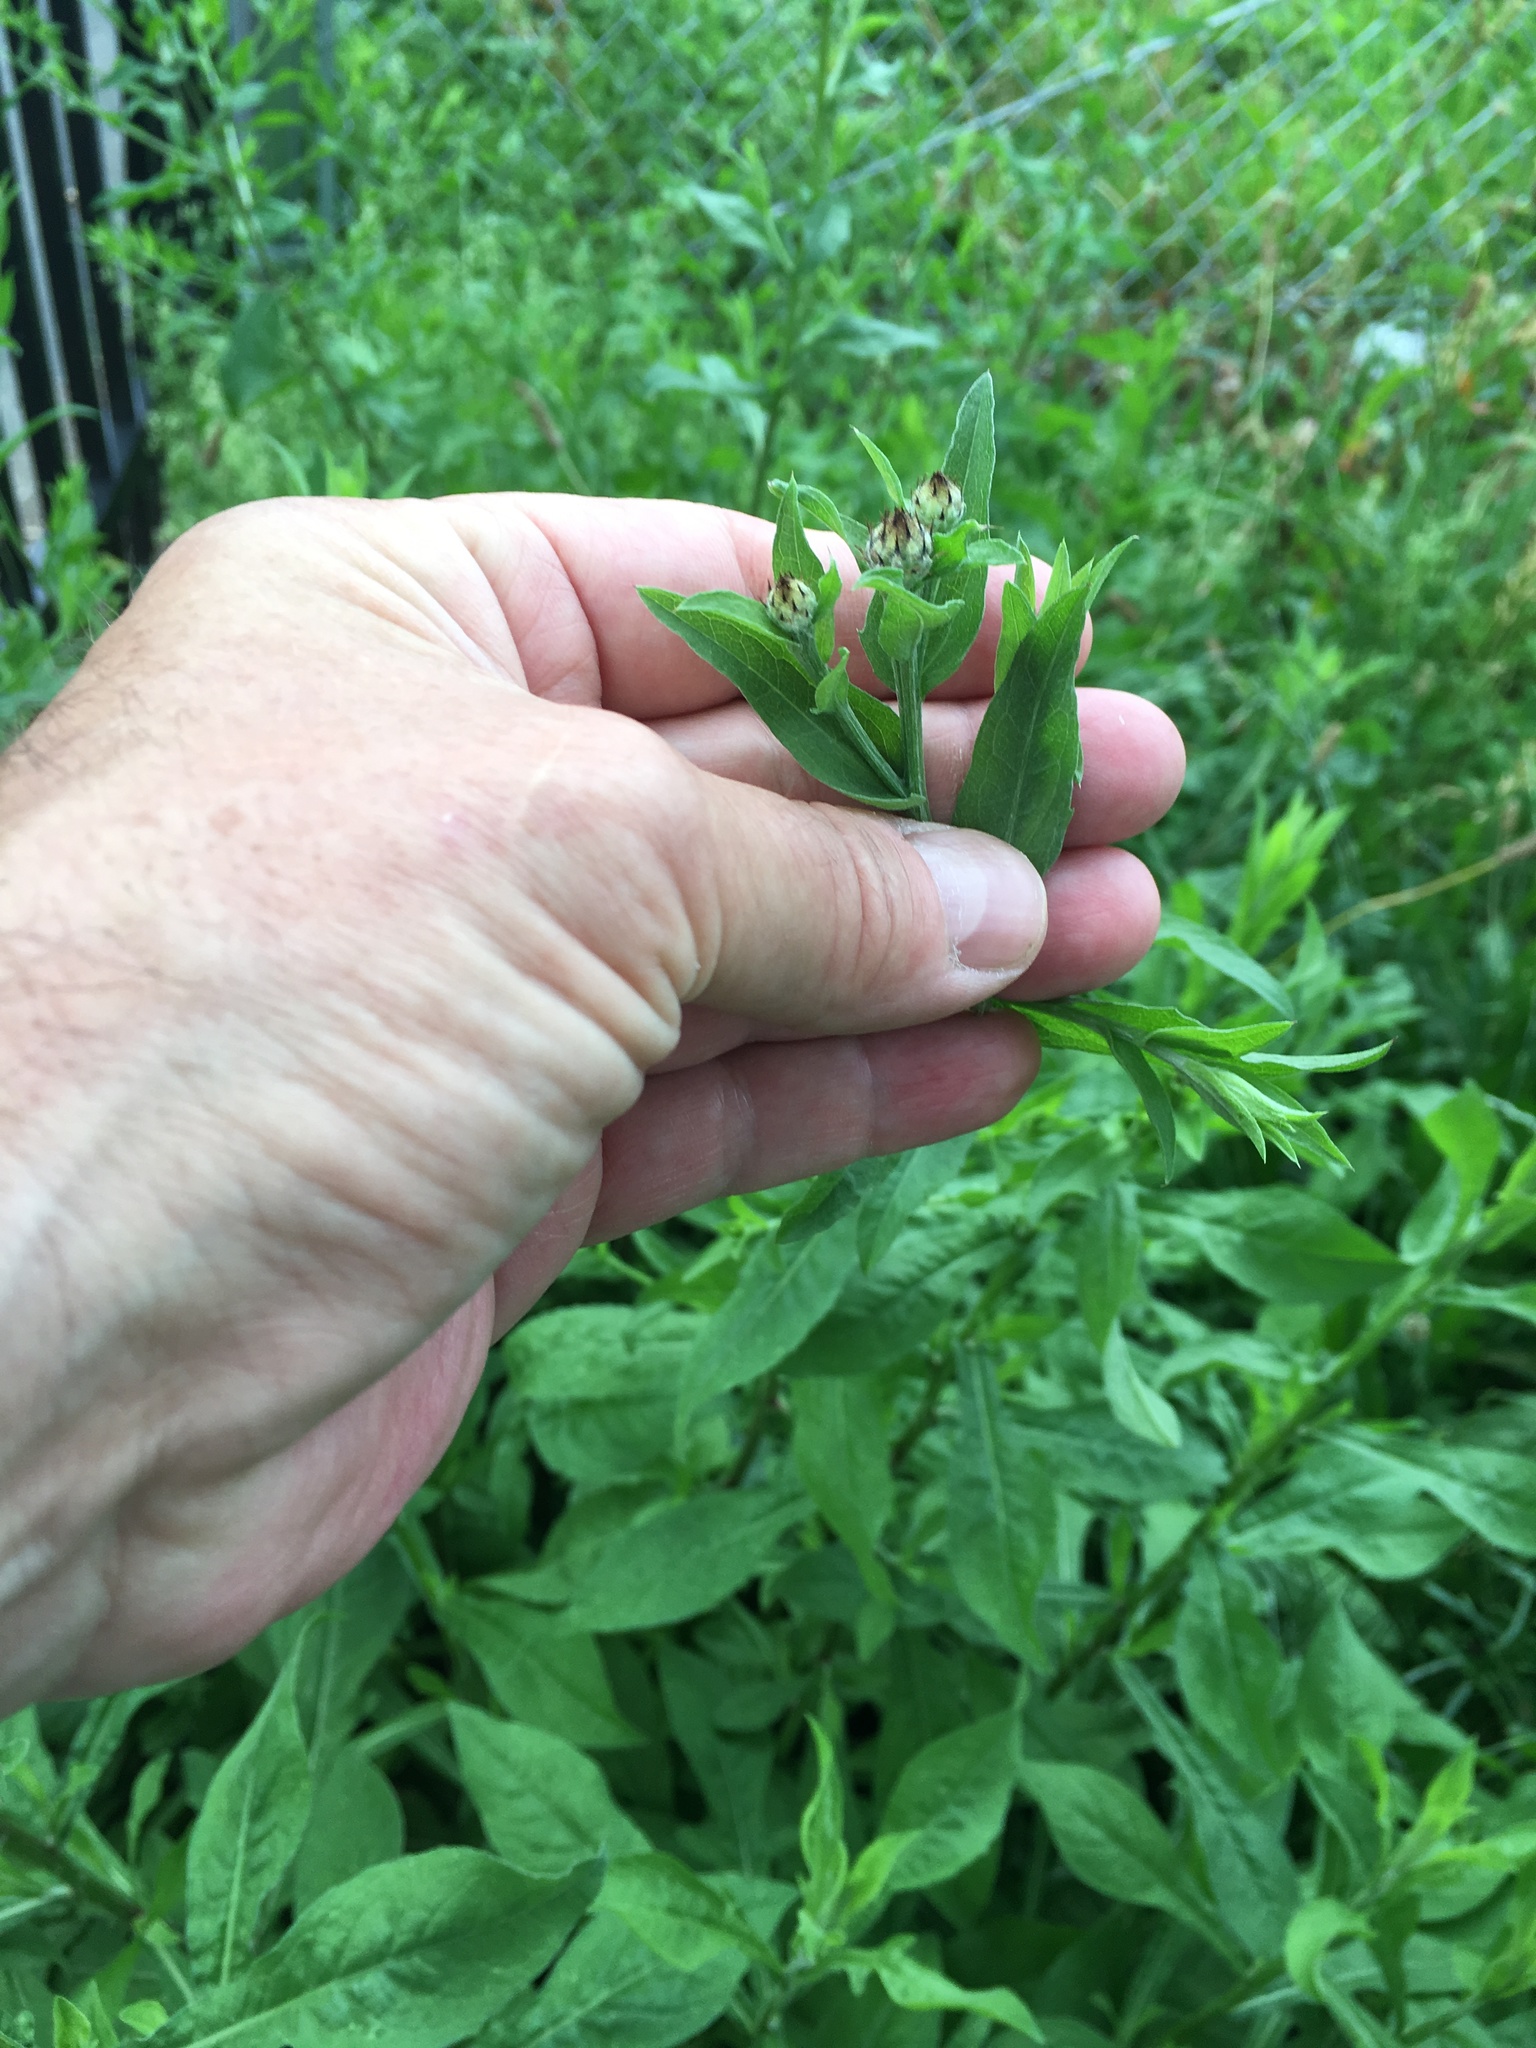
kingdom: Plantae
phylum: Tracheophyta
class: Magnoliopsida
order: Asterales
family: Asteraceae
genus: Centaurea
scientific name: Centaurea nigra
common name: Lesser knapweed
